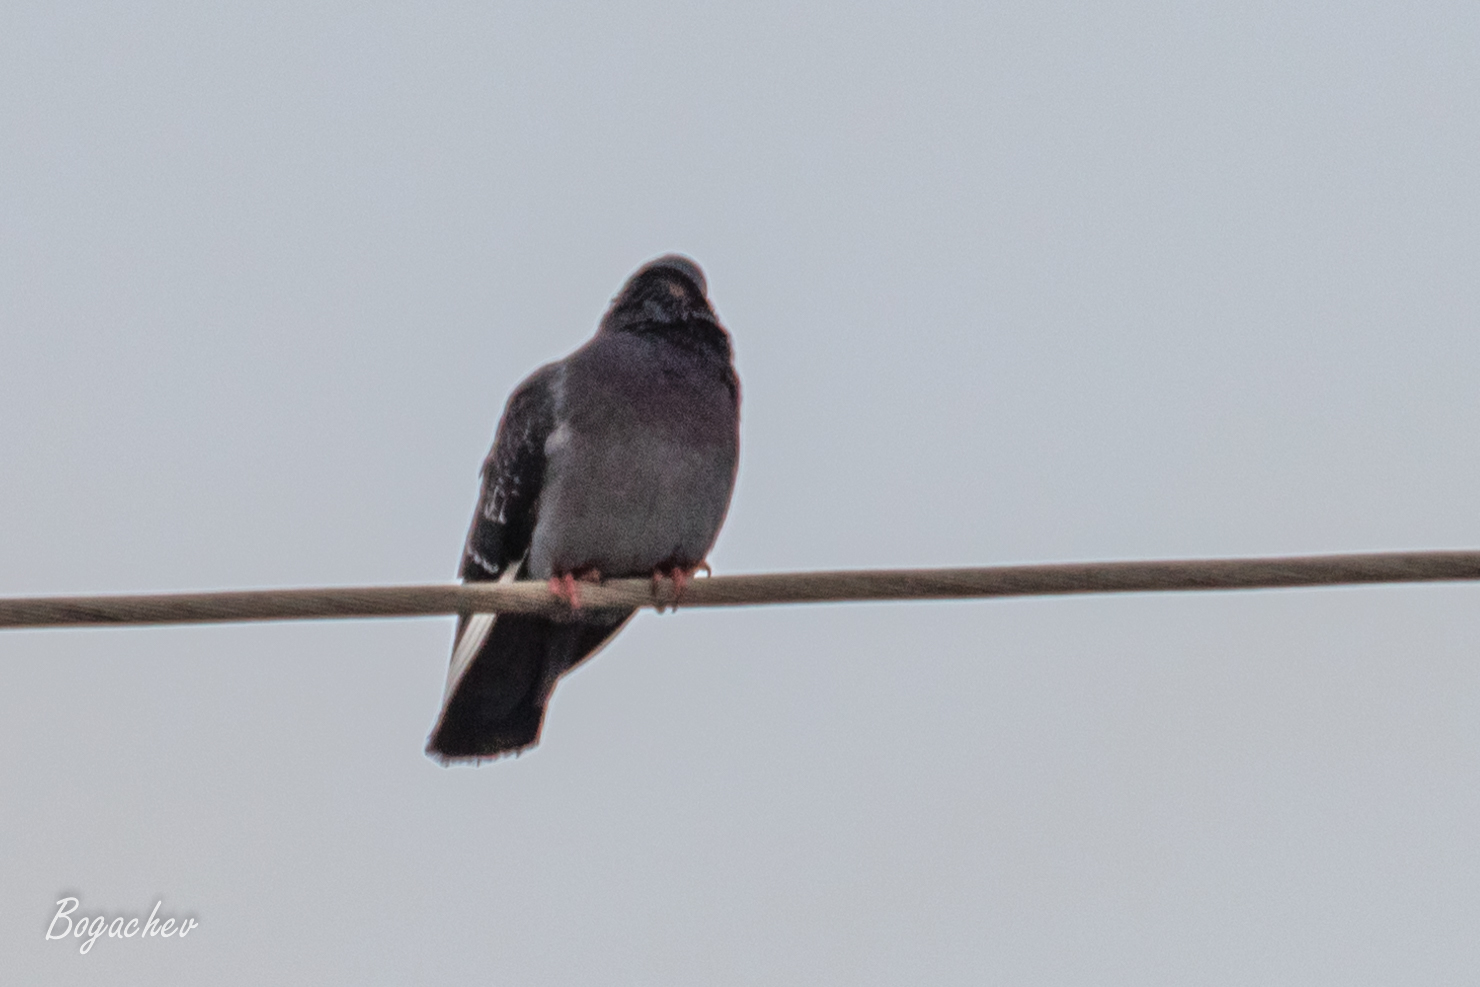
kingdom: Animalia
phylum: Chordata
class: Aves
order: Columbiformes
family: Columbidae
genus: Columba
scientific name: Columba livia
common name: Rock pigeon
